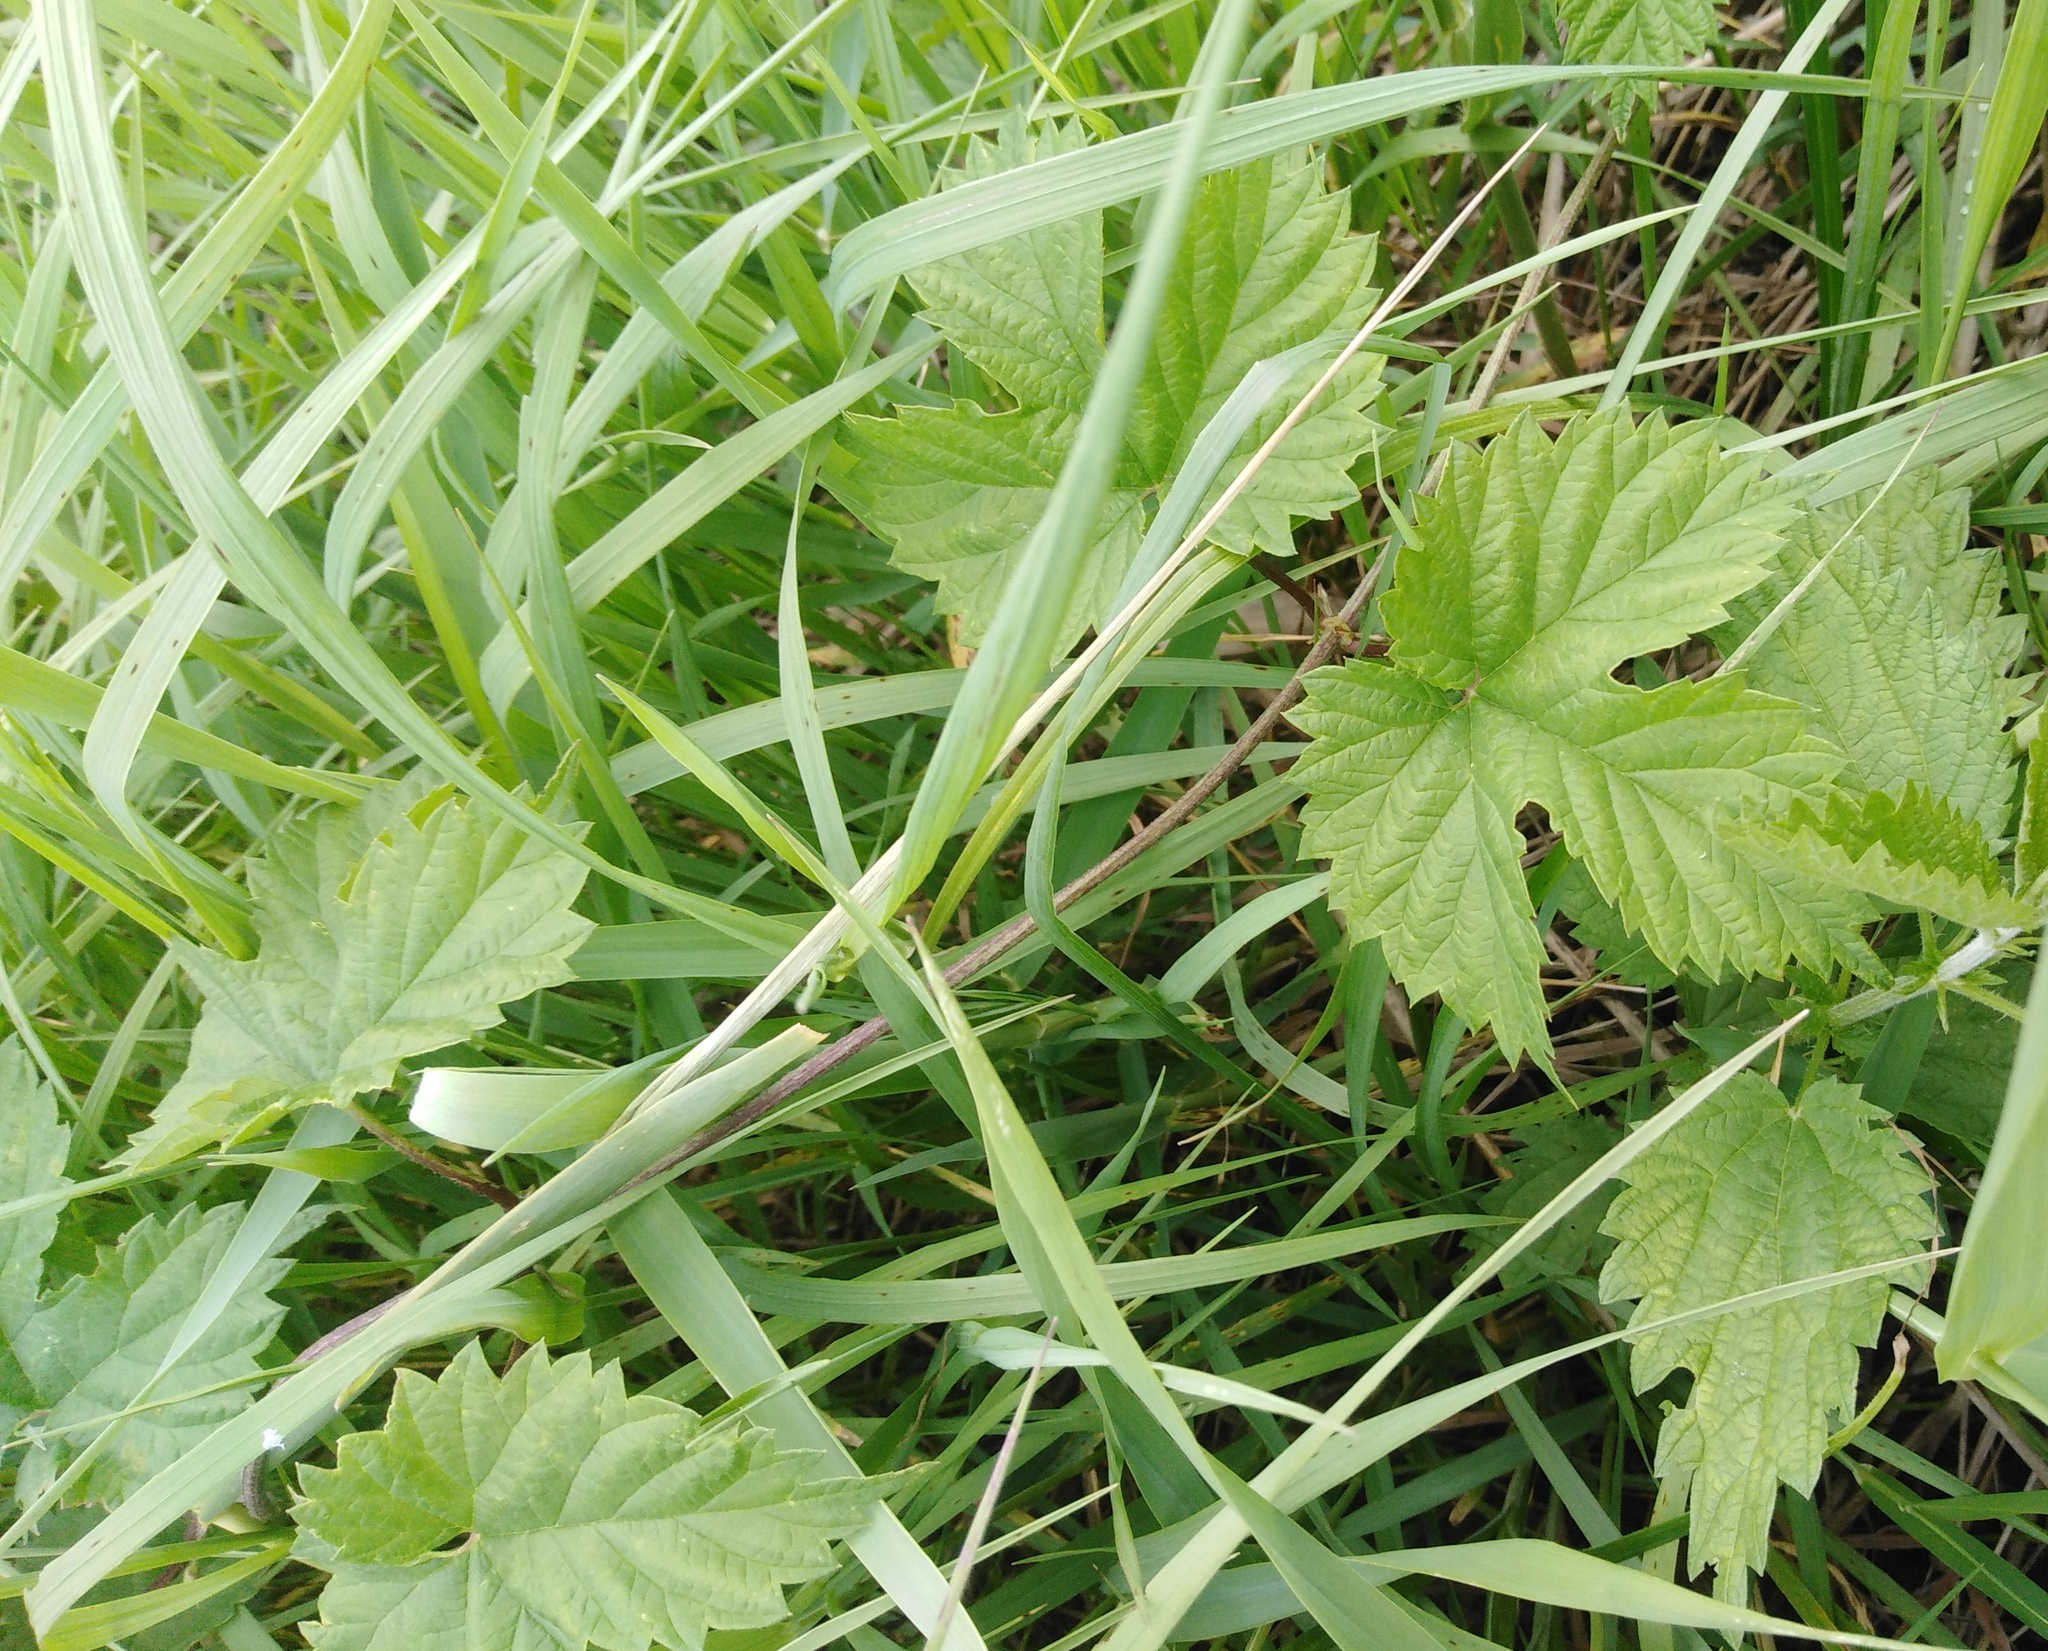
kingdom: Plantae
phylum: Tracheophyta
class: Magnoliopsida
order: Rosales
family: Cannabaceae
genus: Humulus
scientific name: Humulus lupulus
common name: Hop
